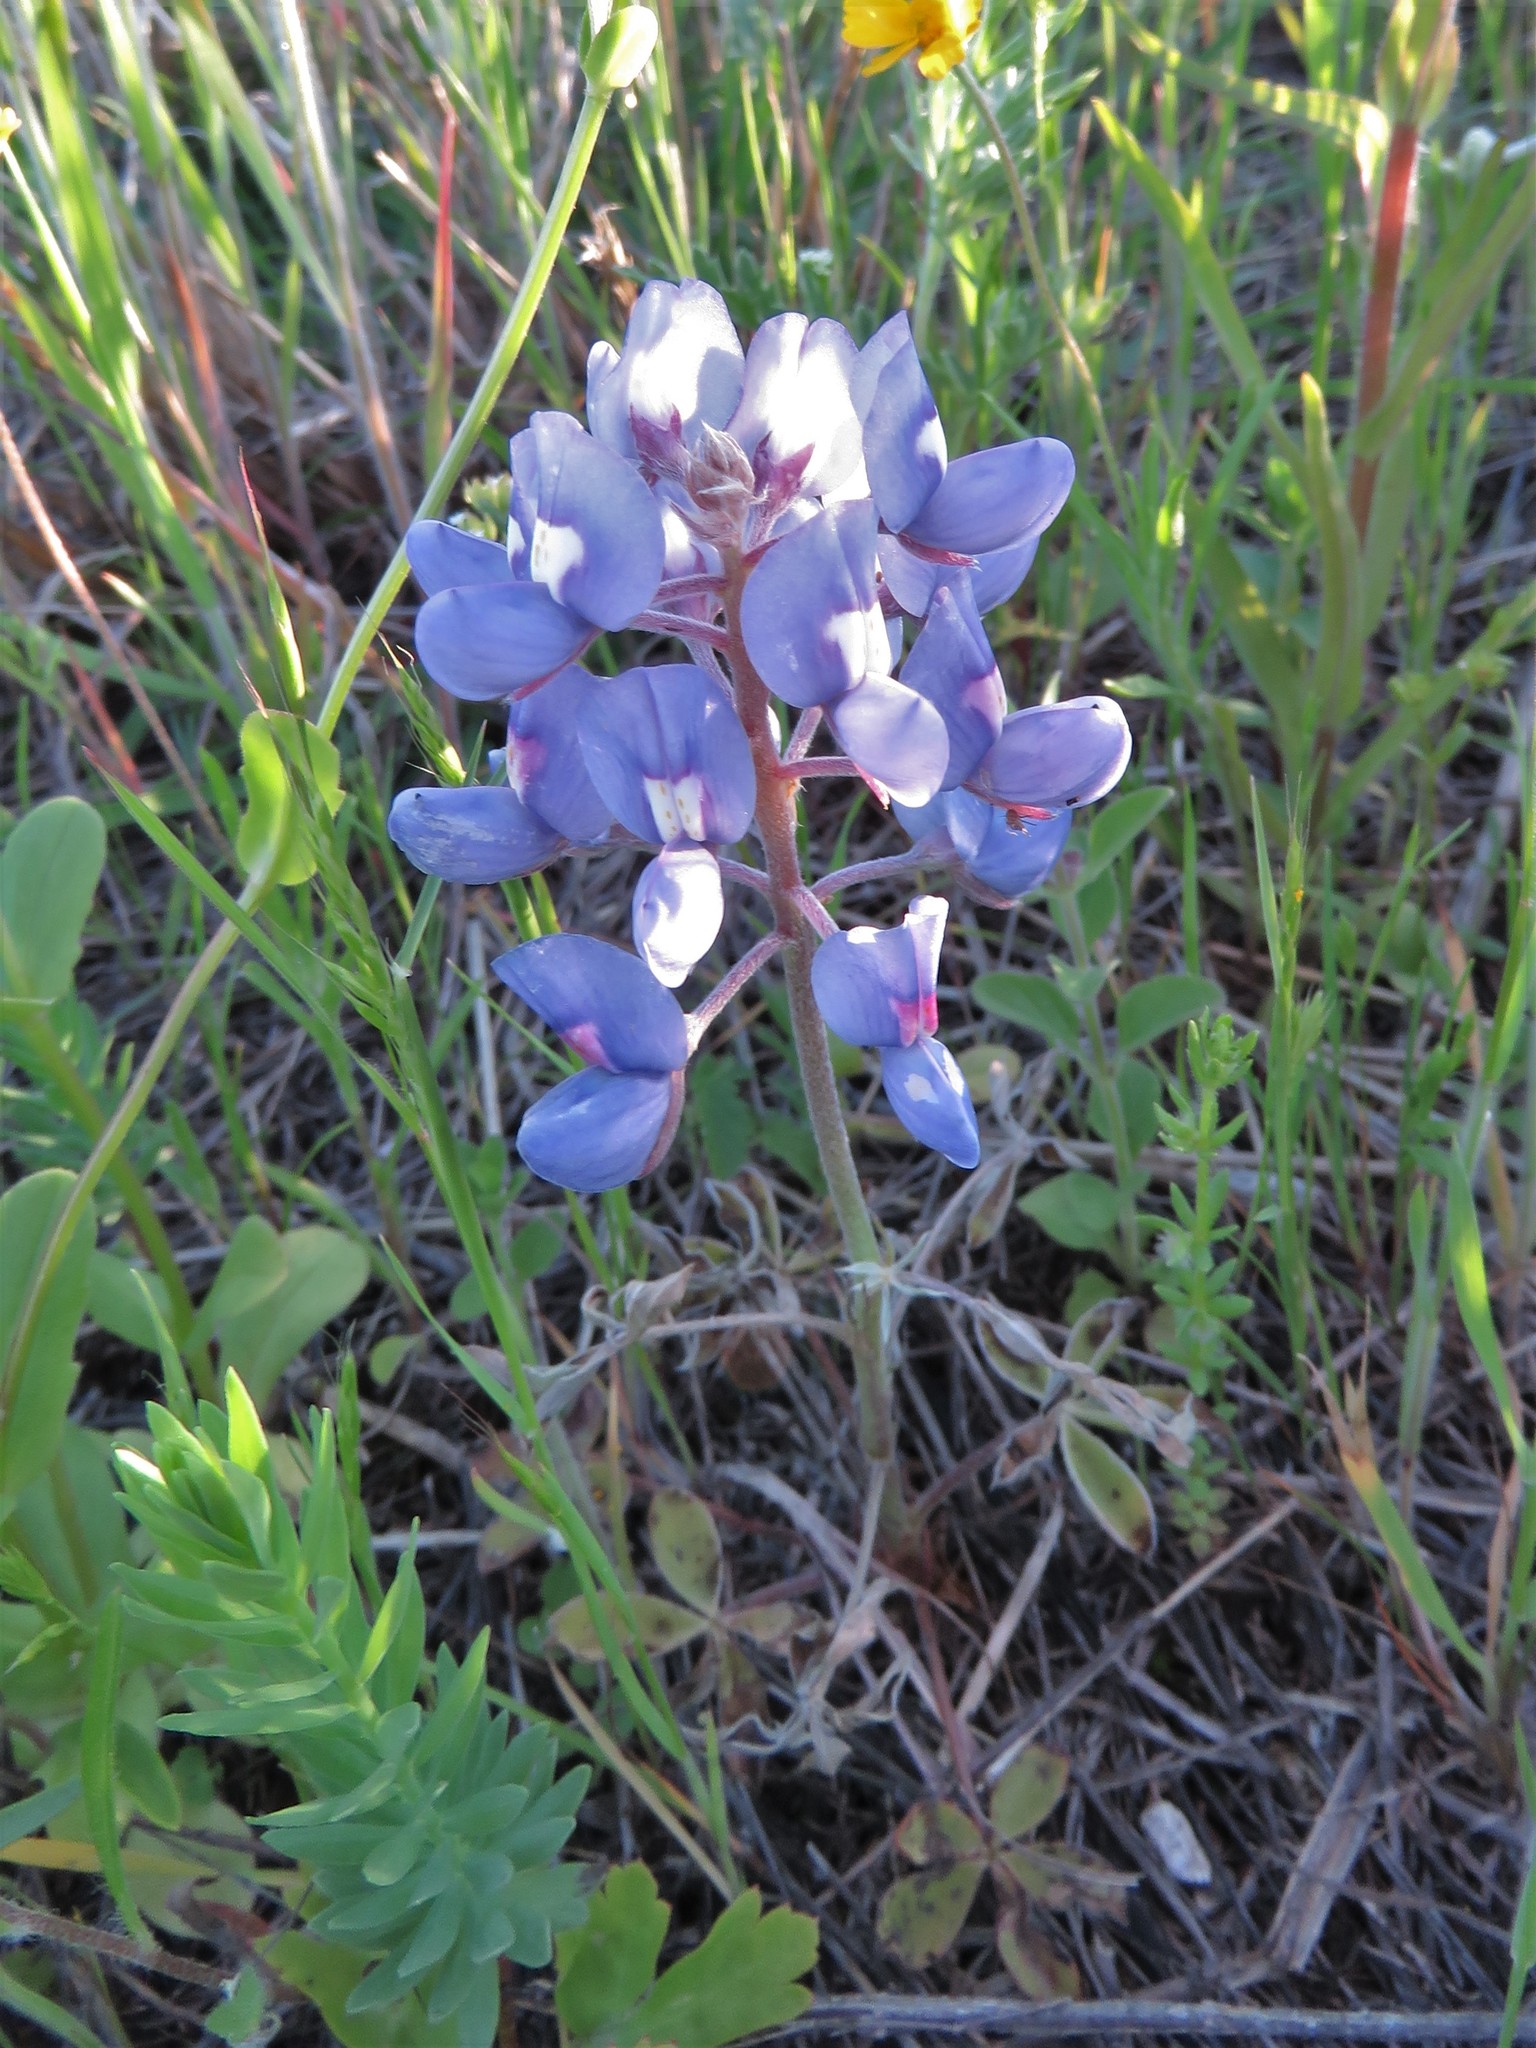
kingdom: Plantae
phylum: Tracheophyta
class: Magnoliopsida
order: Fabales
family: Fabaceae
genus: Lupinus
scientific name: Lupinus texensis
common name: Texas bluebonnet
